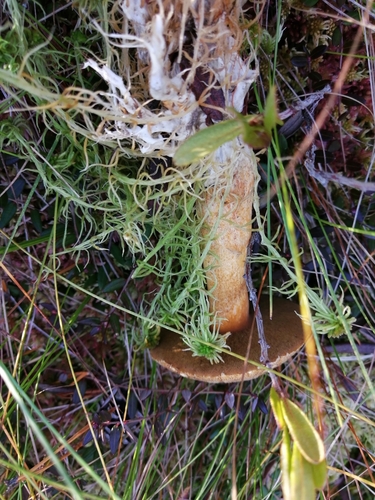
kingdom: Fungi
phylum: Basidiomycota
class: Agaricomycetes
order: Boletales
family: Suillaceae
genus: Suillus
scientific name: Suillus variegatus
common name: Velvet bolete
